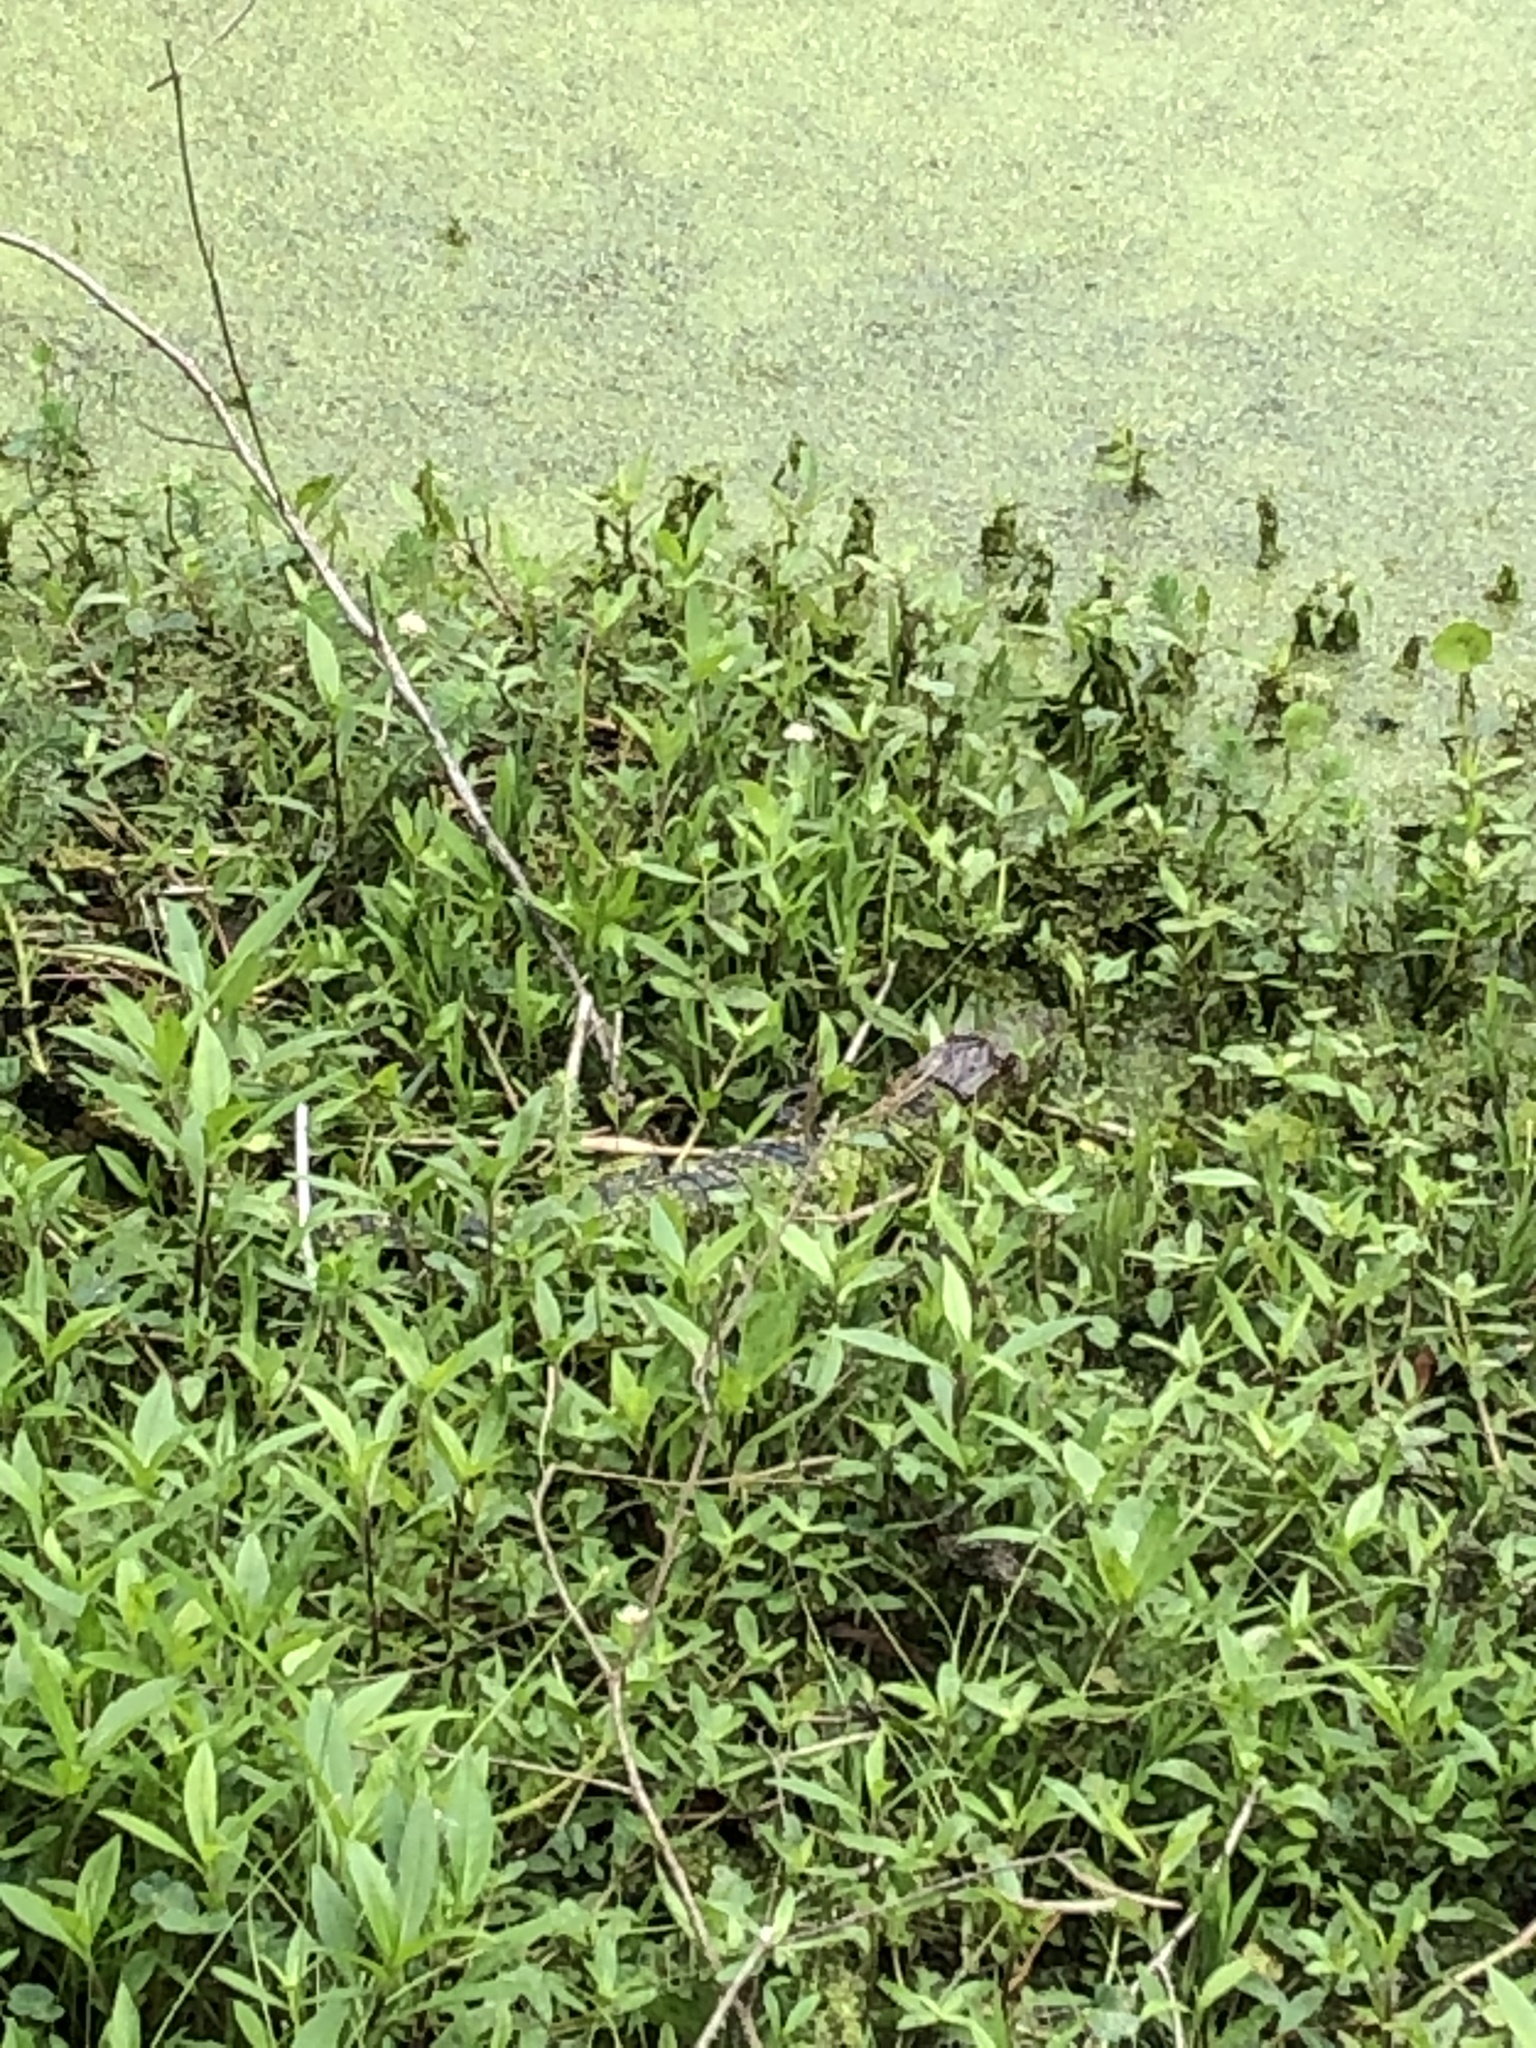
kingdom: Animalia
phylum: Chordata
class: Crocodylia
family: Alligatoridae
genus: Alligator
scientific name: Alligator mississippiensis
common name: American alligator
